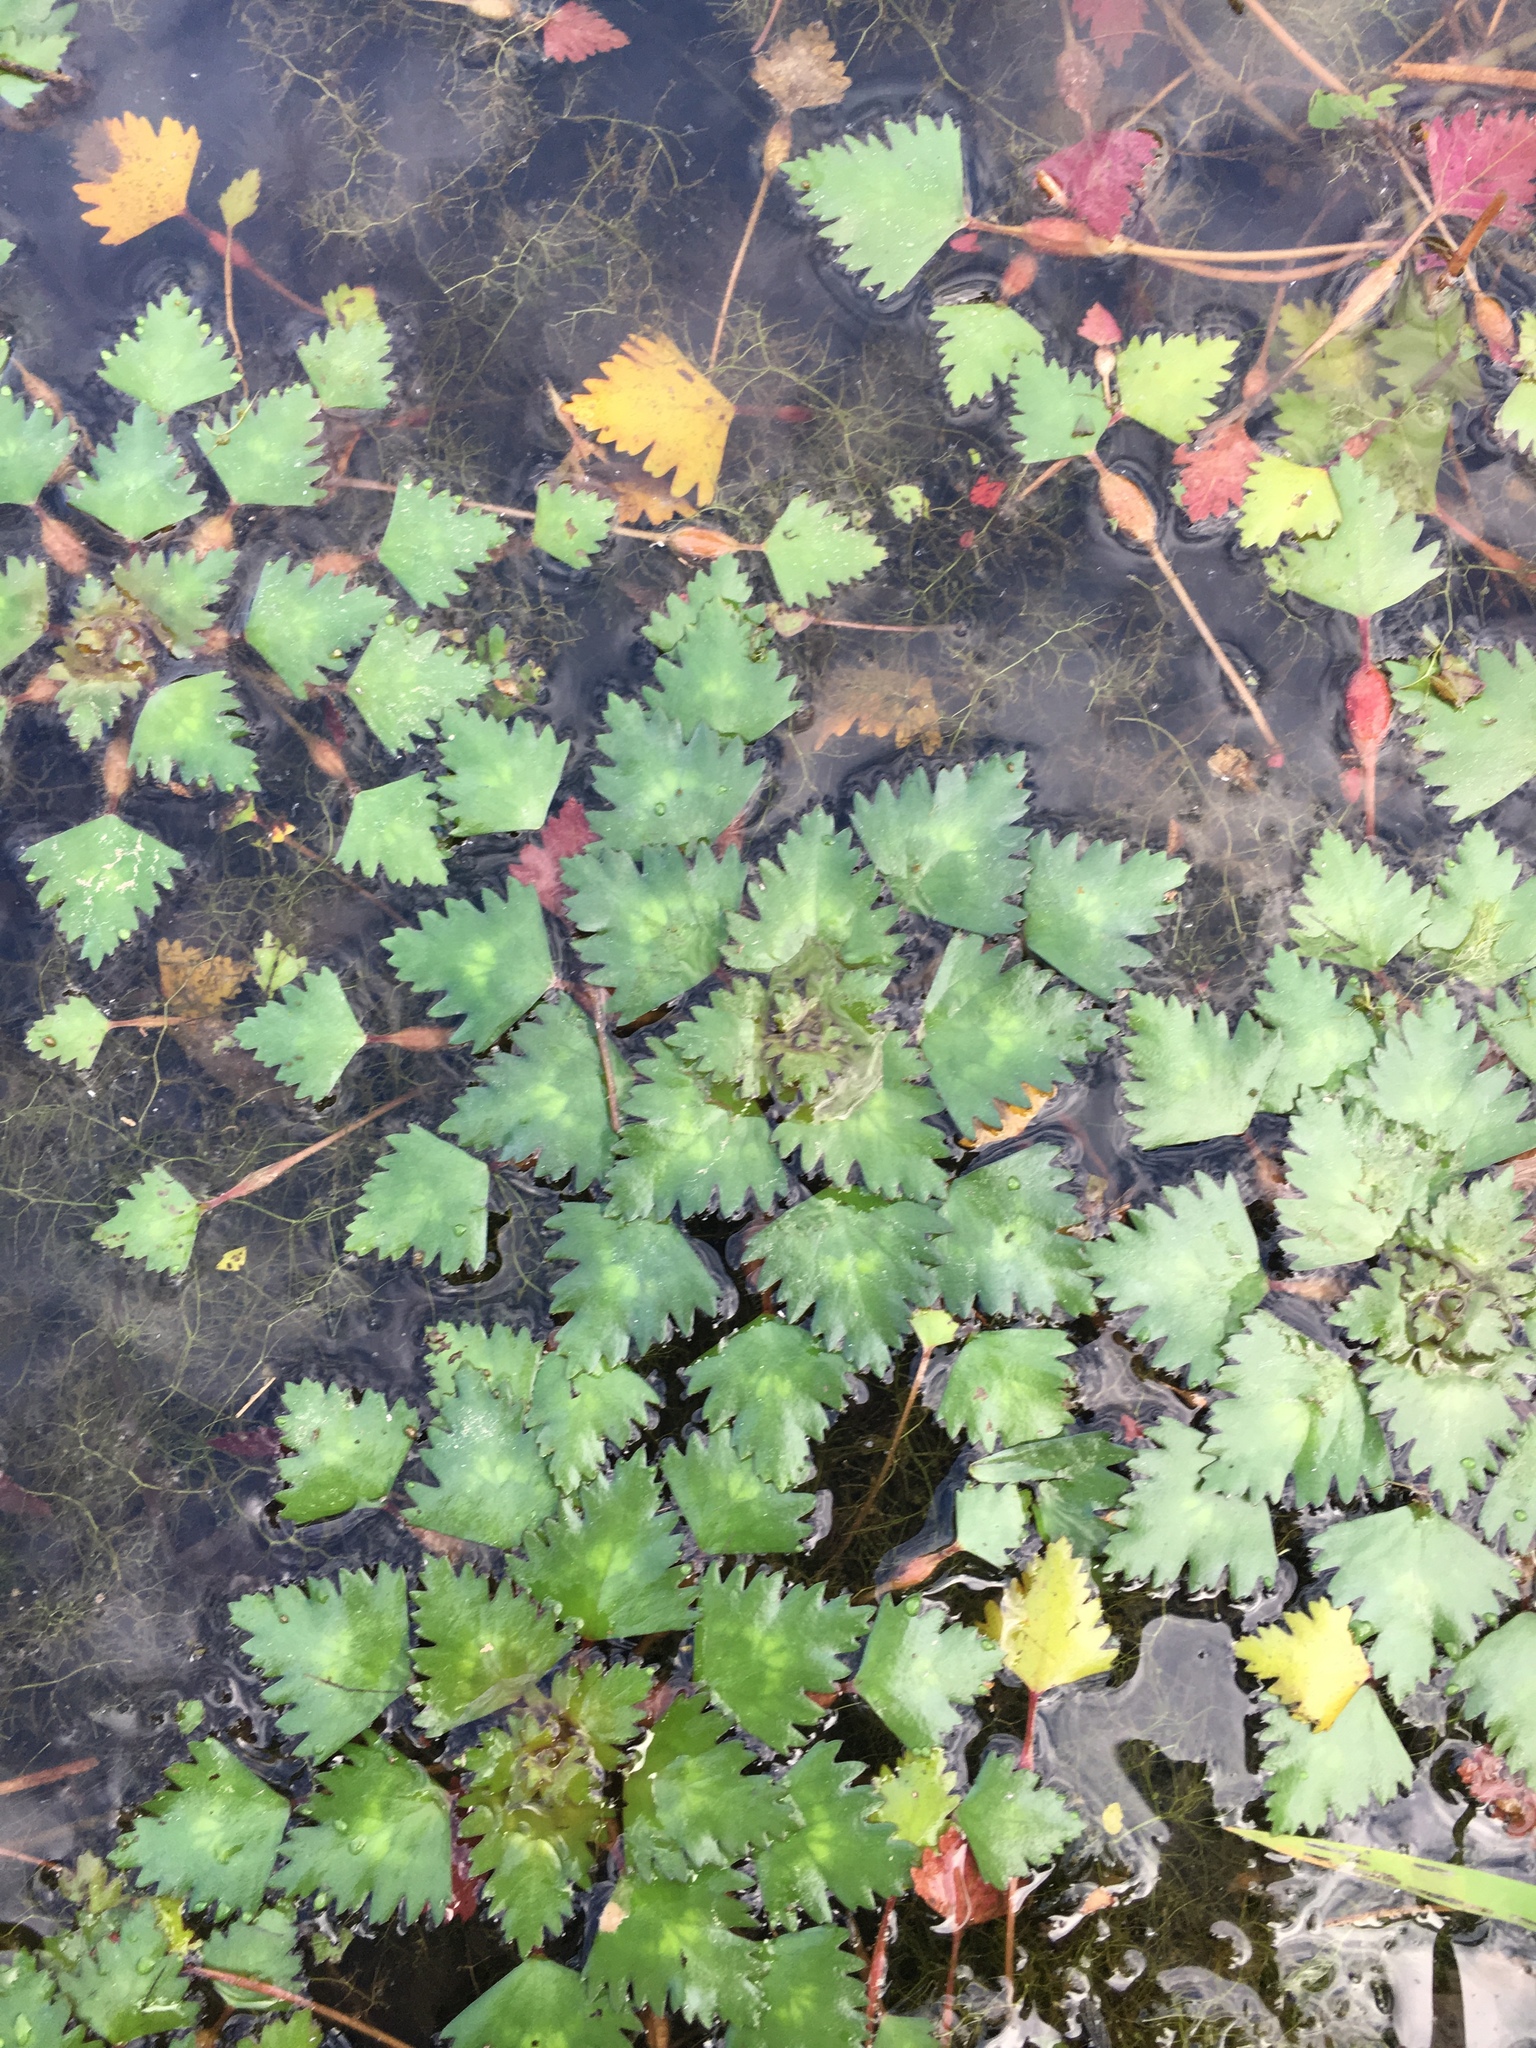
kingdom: Plantae
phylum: Tracheophyta
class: Magnoliopsida
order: Myrtales
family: Lythraceae
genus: Trapa
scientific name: Trapa natans
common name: Water chestnut
